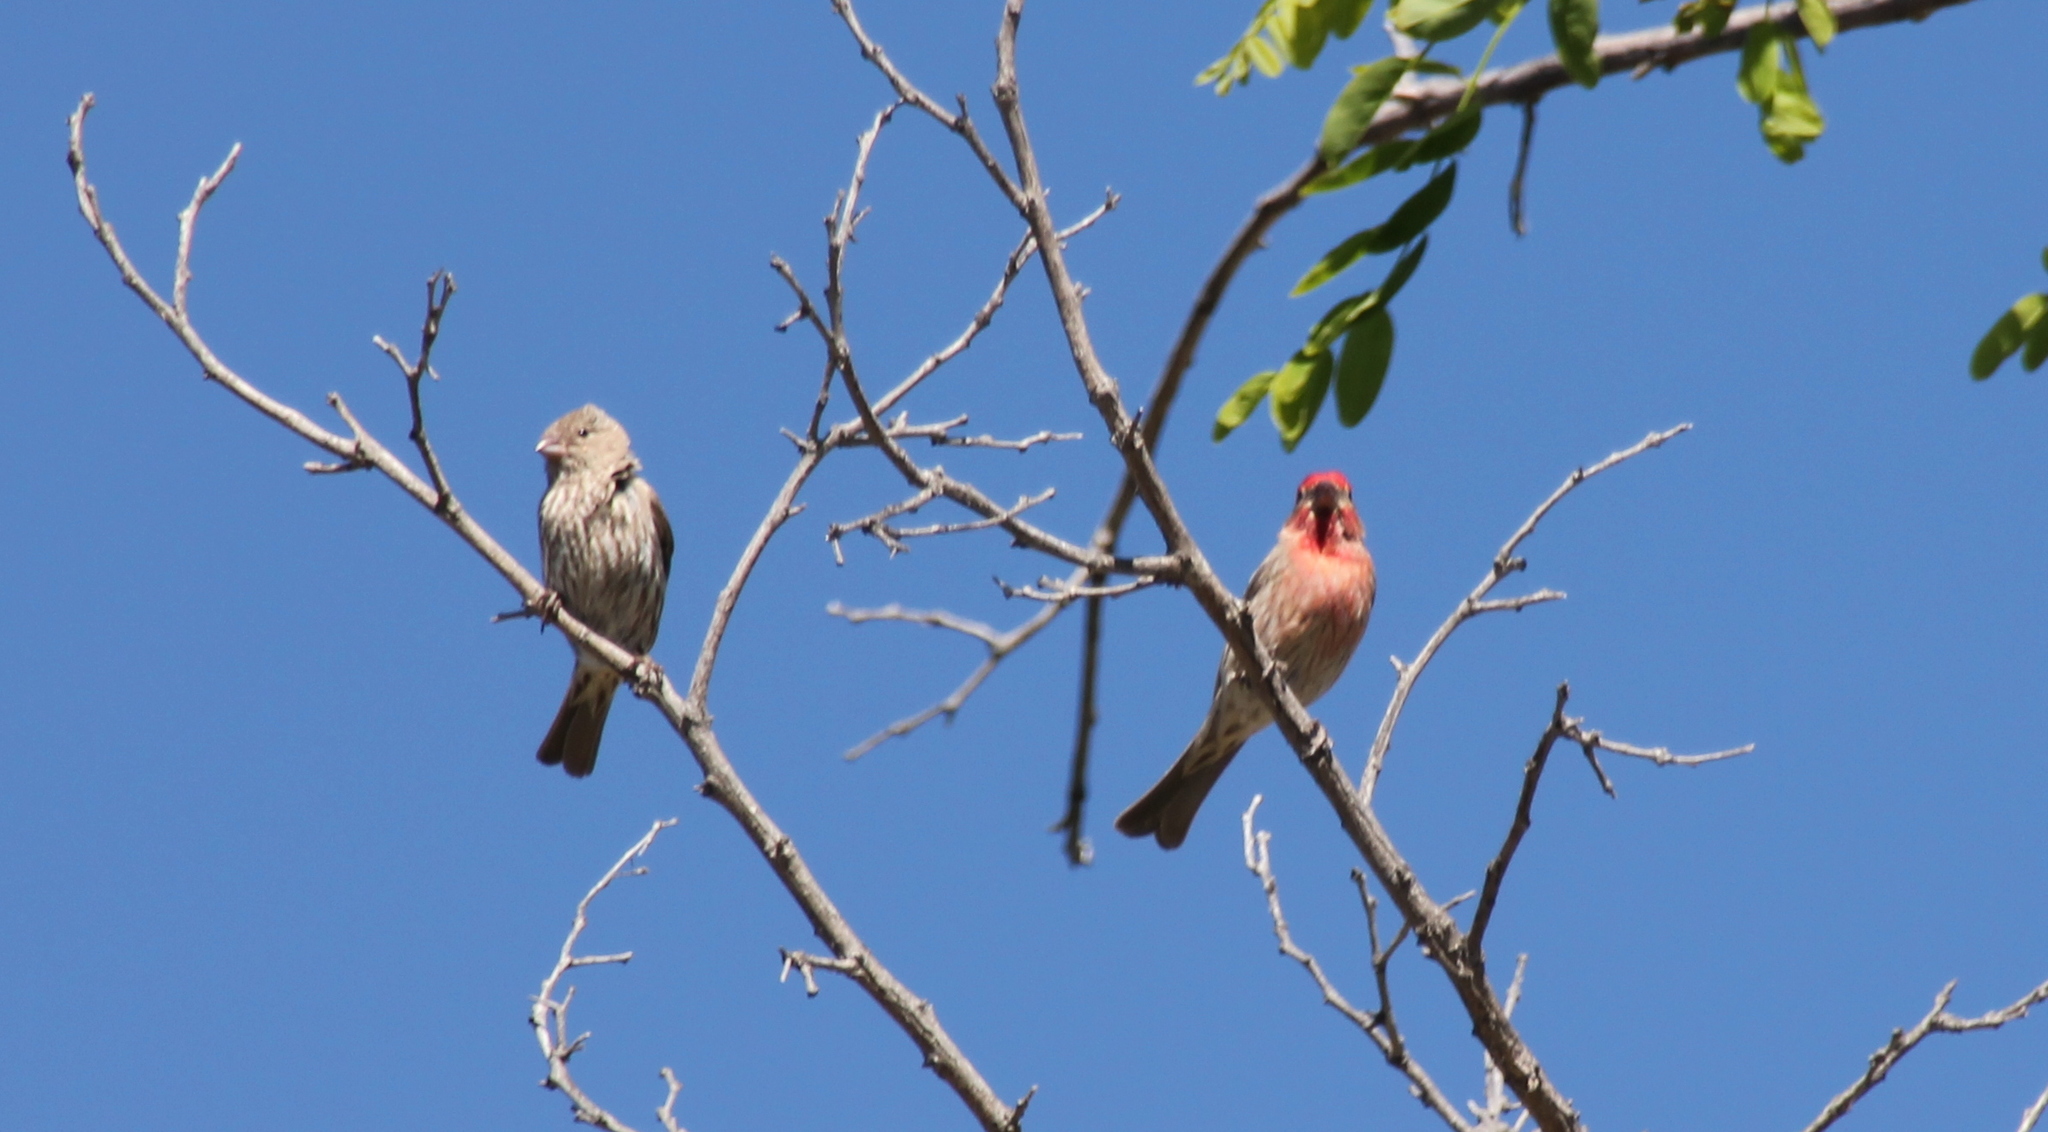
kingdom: Animalia
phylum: Chordata
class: Aves
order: Passeriformes
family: Fringillidae
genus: Haemorhous
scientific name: Haemorhous mexicanus
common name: House finch
